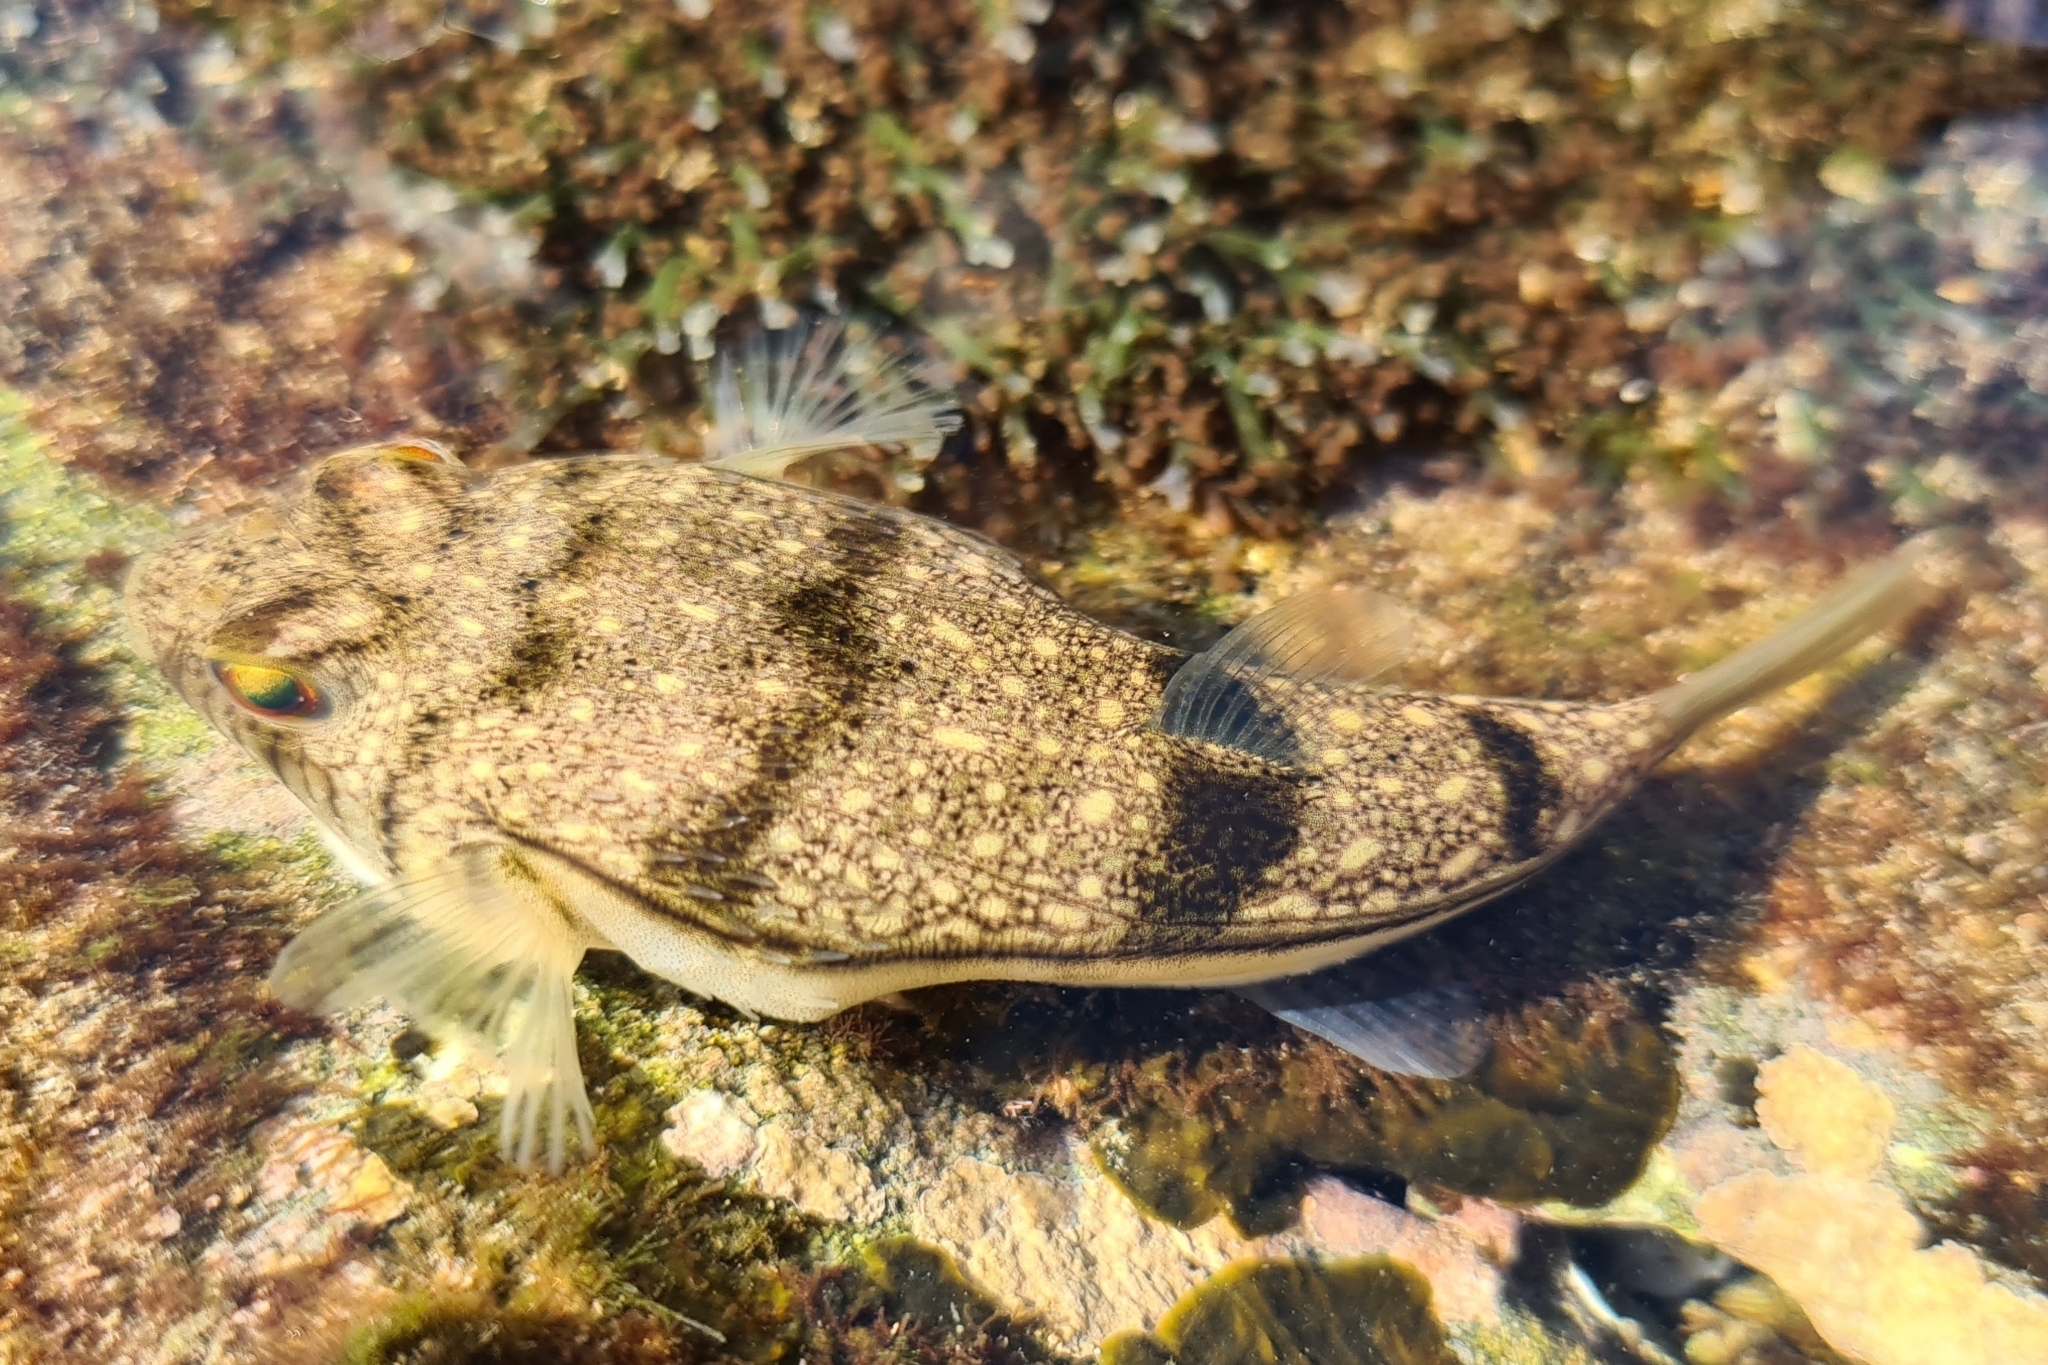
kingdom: Animalia
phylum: Chordata
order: Tetraodontiformes
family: Tetraodontidae
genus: Torquigener
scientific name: Torquigener pleurogramma
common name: Banded toadfish
